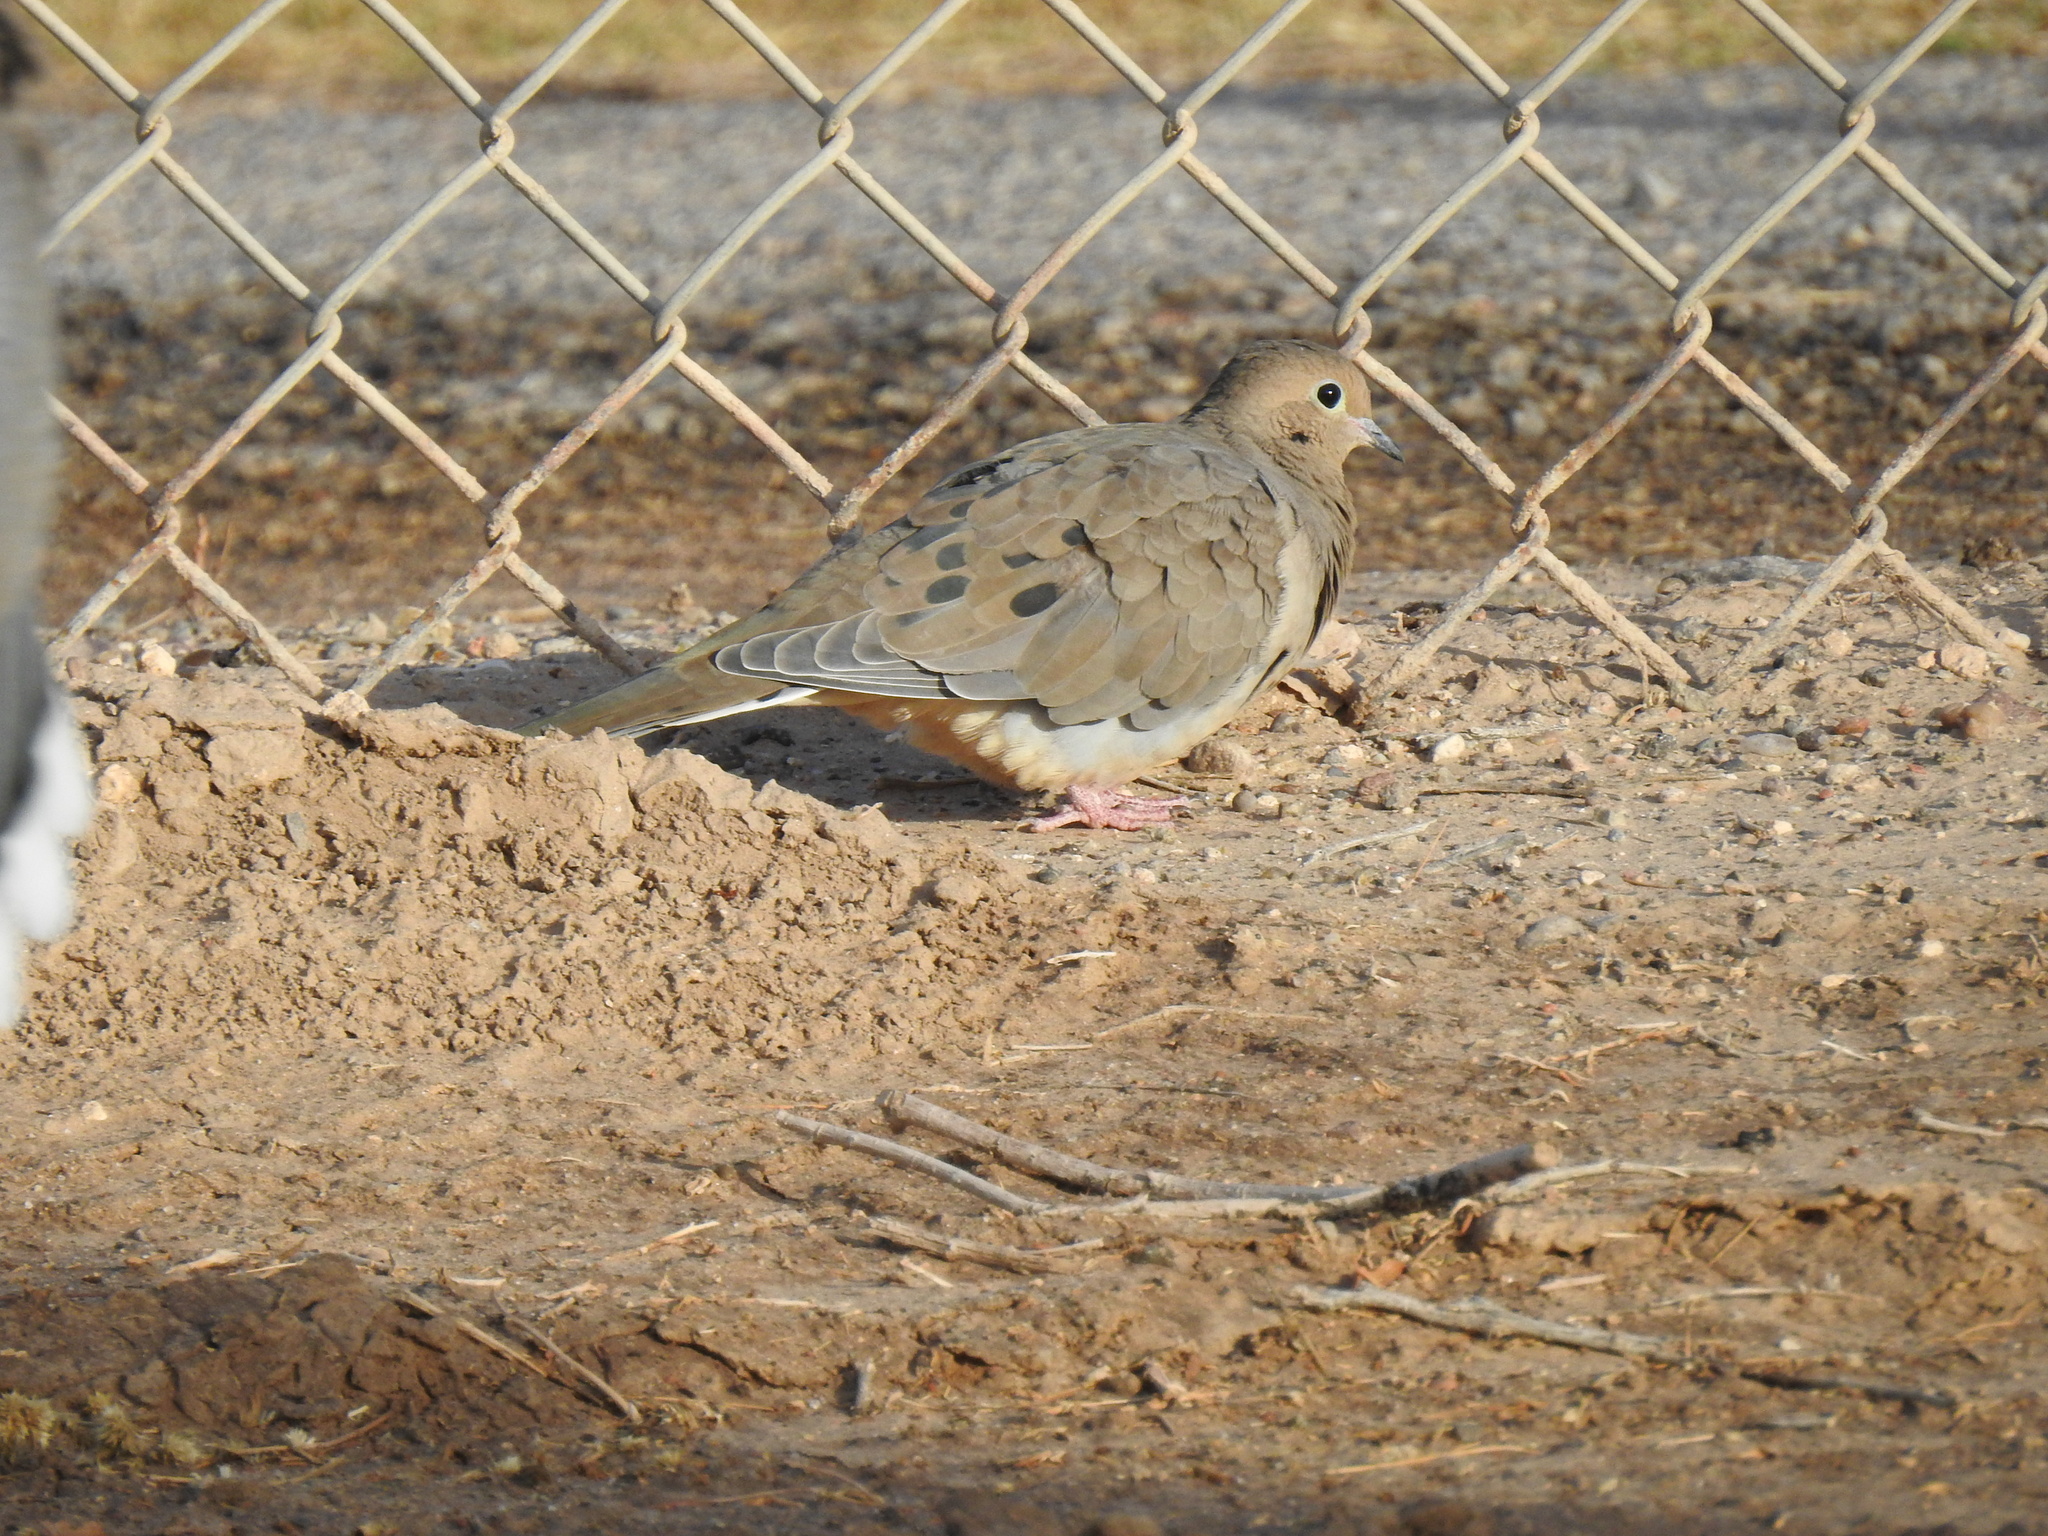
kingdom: Animalia
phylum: Chordata
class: Aves
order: Columbiformes
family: Columbidae
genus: Zenaida
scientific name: Zenaida macroura
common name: Mourning dove
